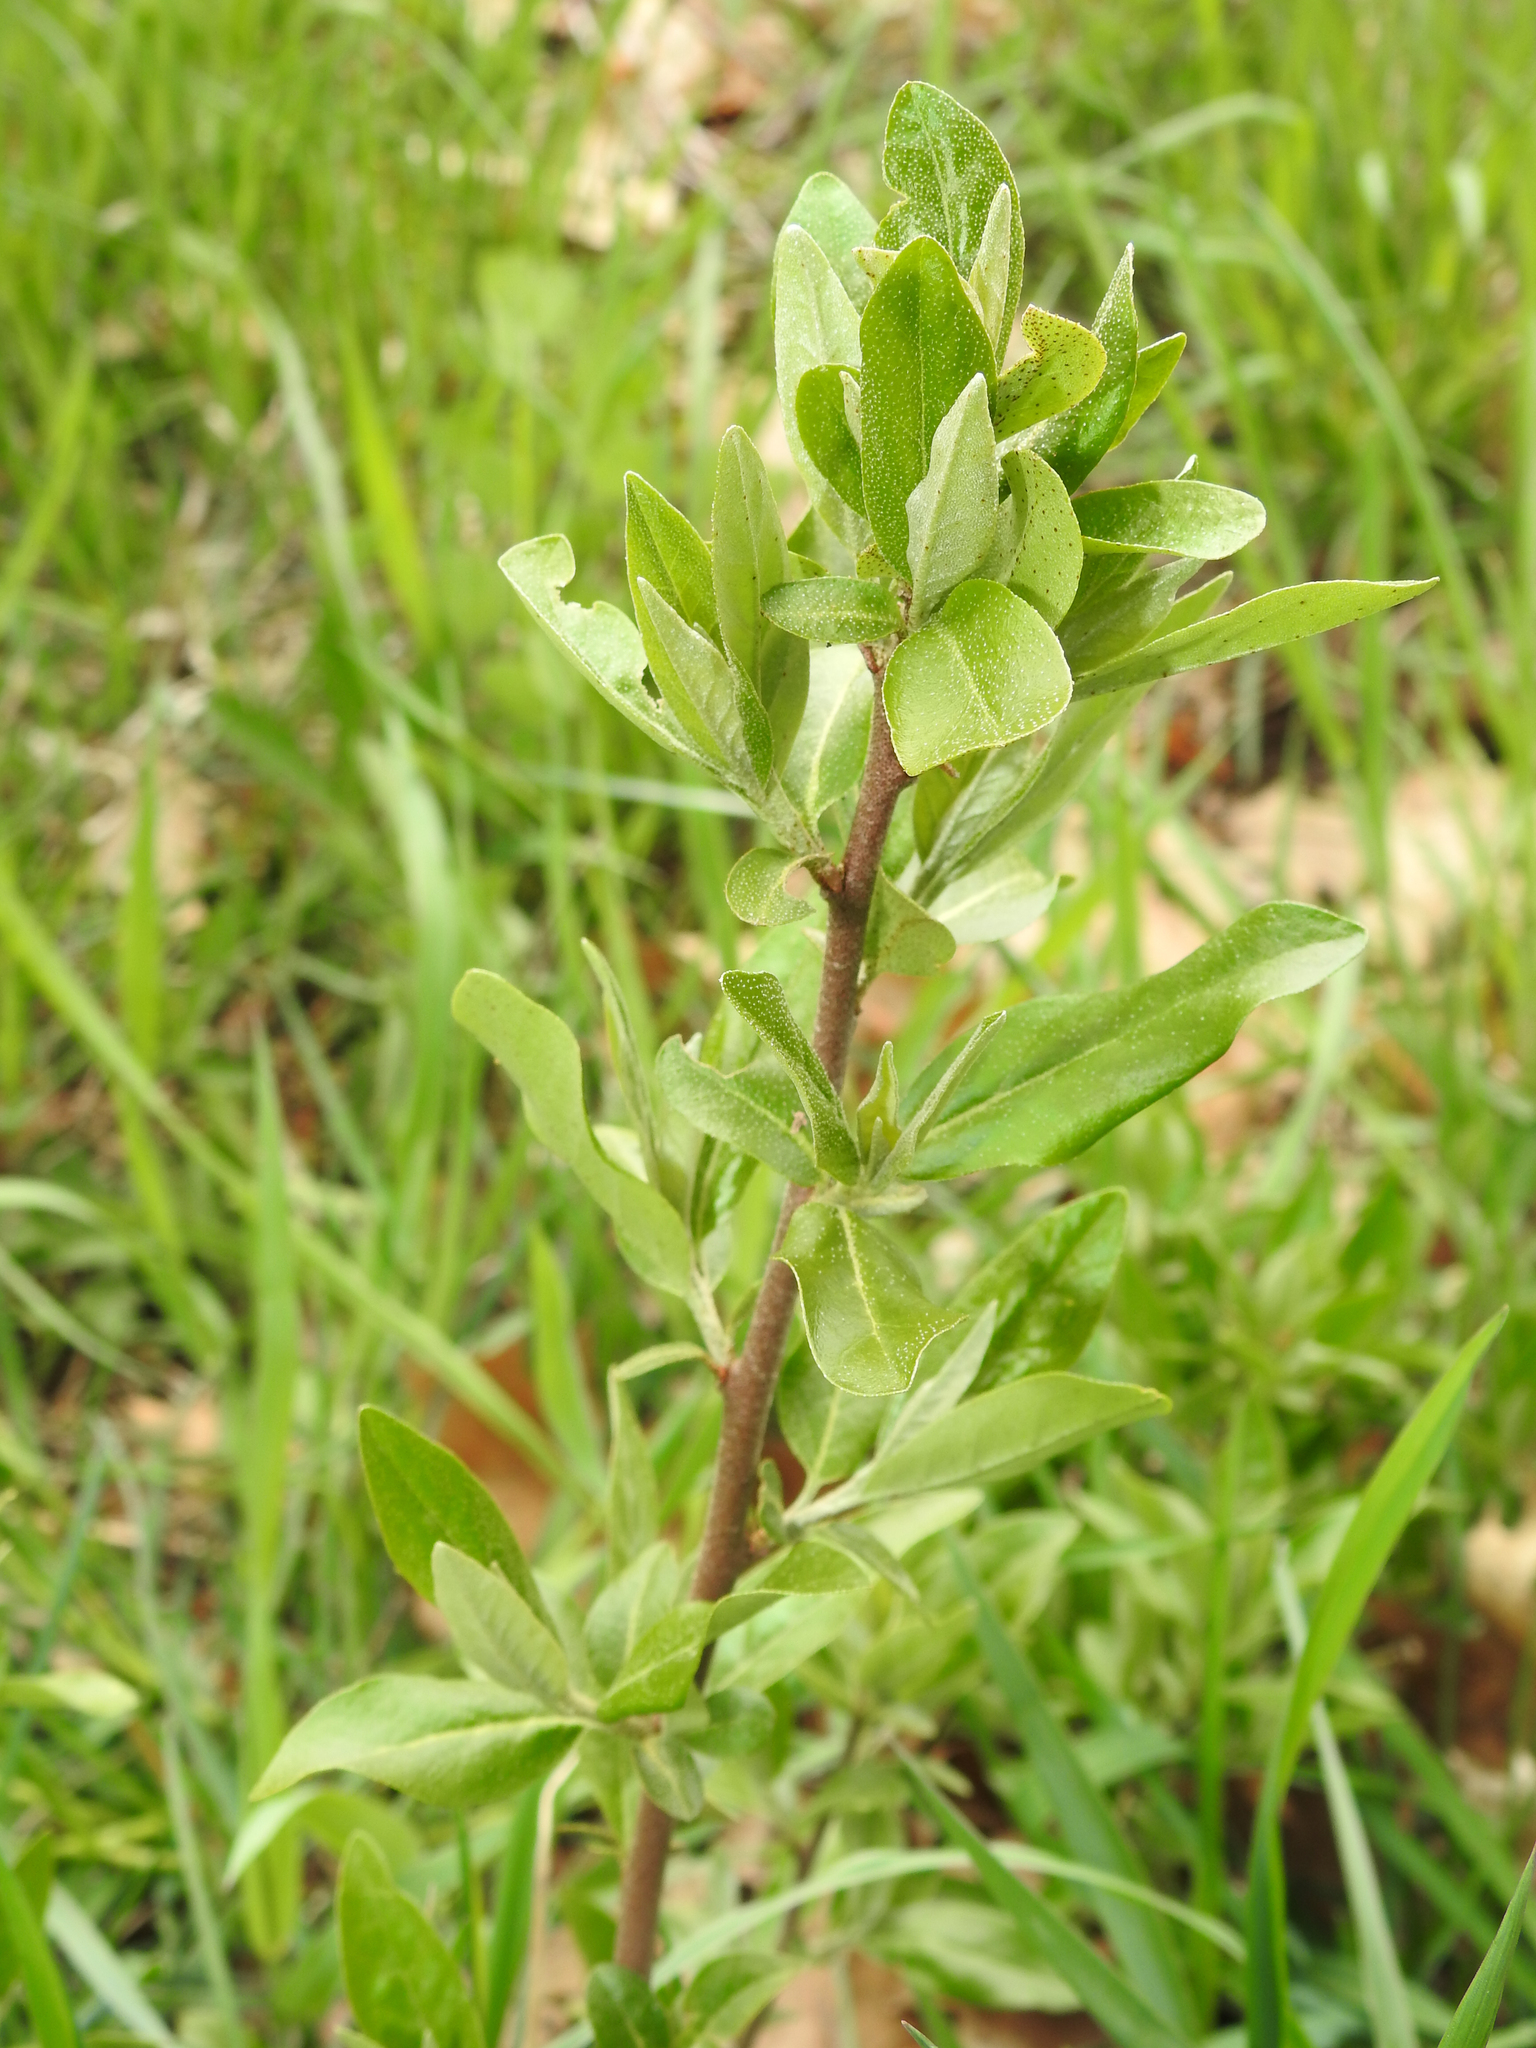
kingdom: Plantae
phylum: Tracheophyta
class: Magnoliopsida
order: Rosales
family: Elaeagnaceae
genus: Elaeagnus
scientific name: Elaeagnus umbellata
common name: Autumn olive
